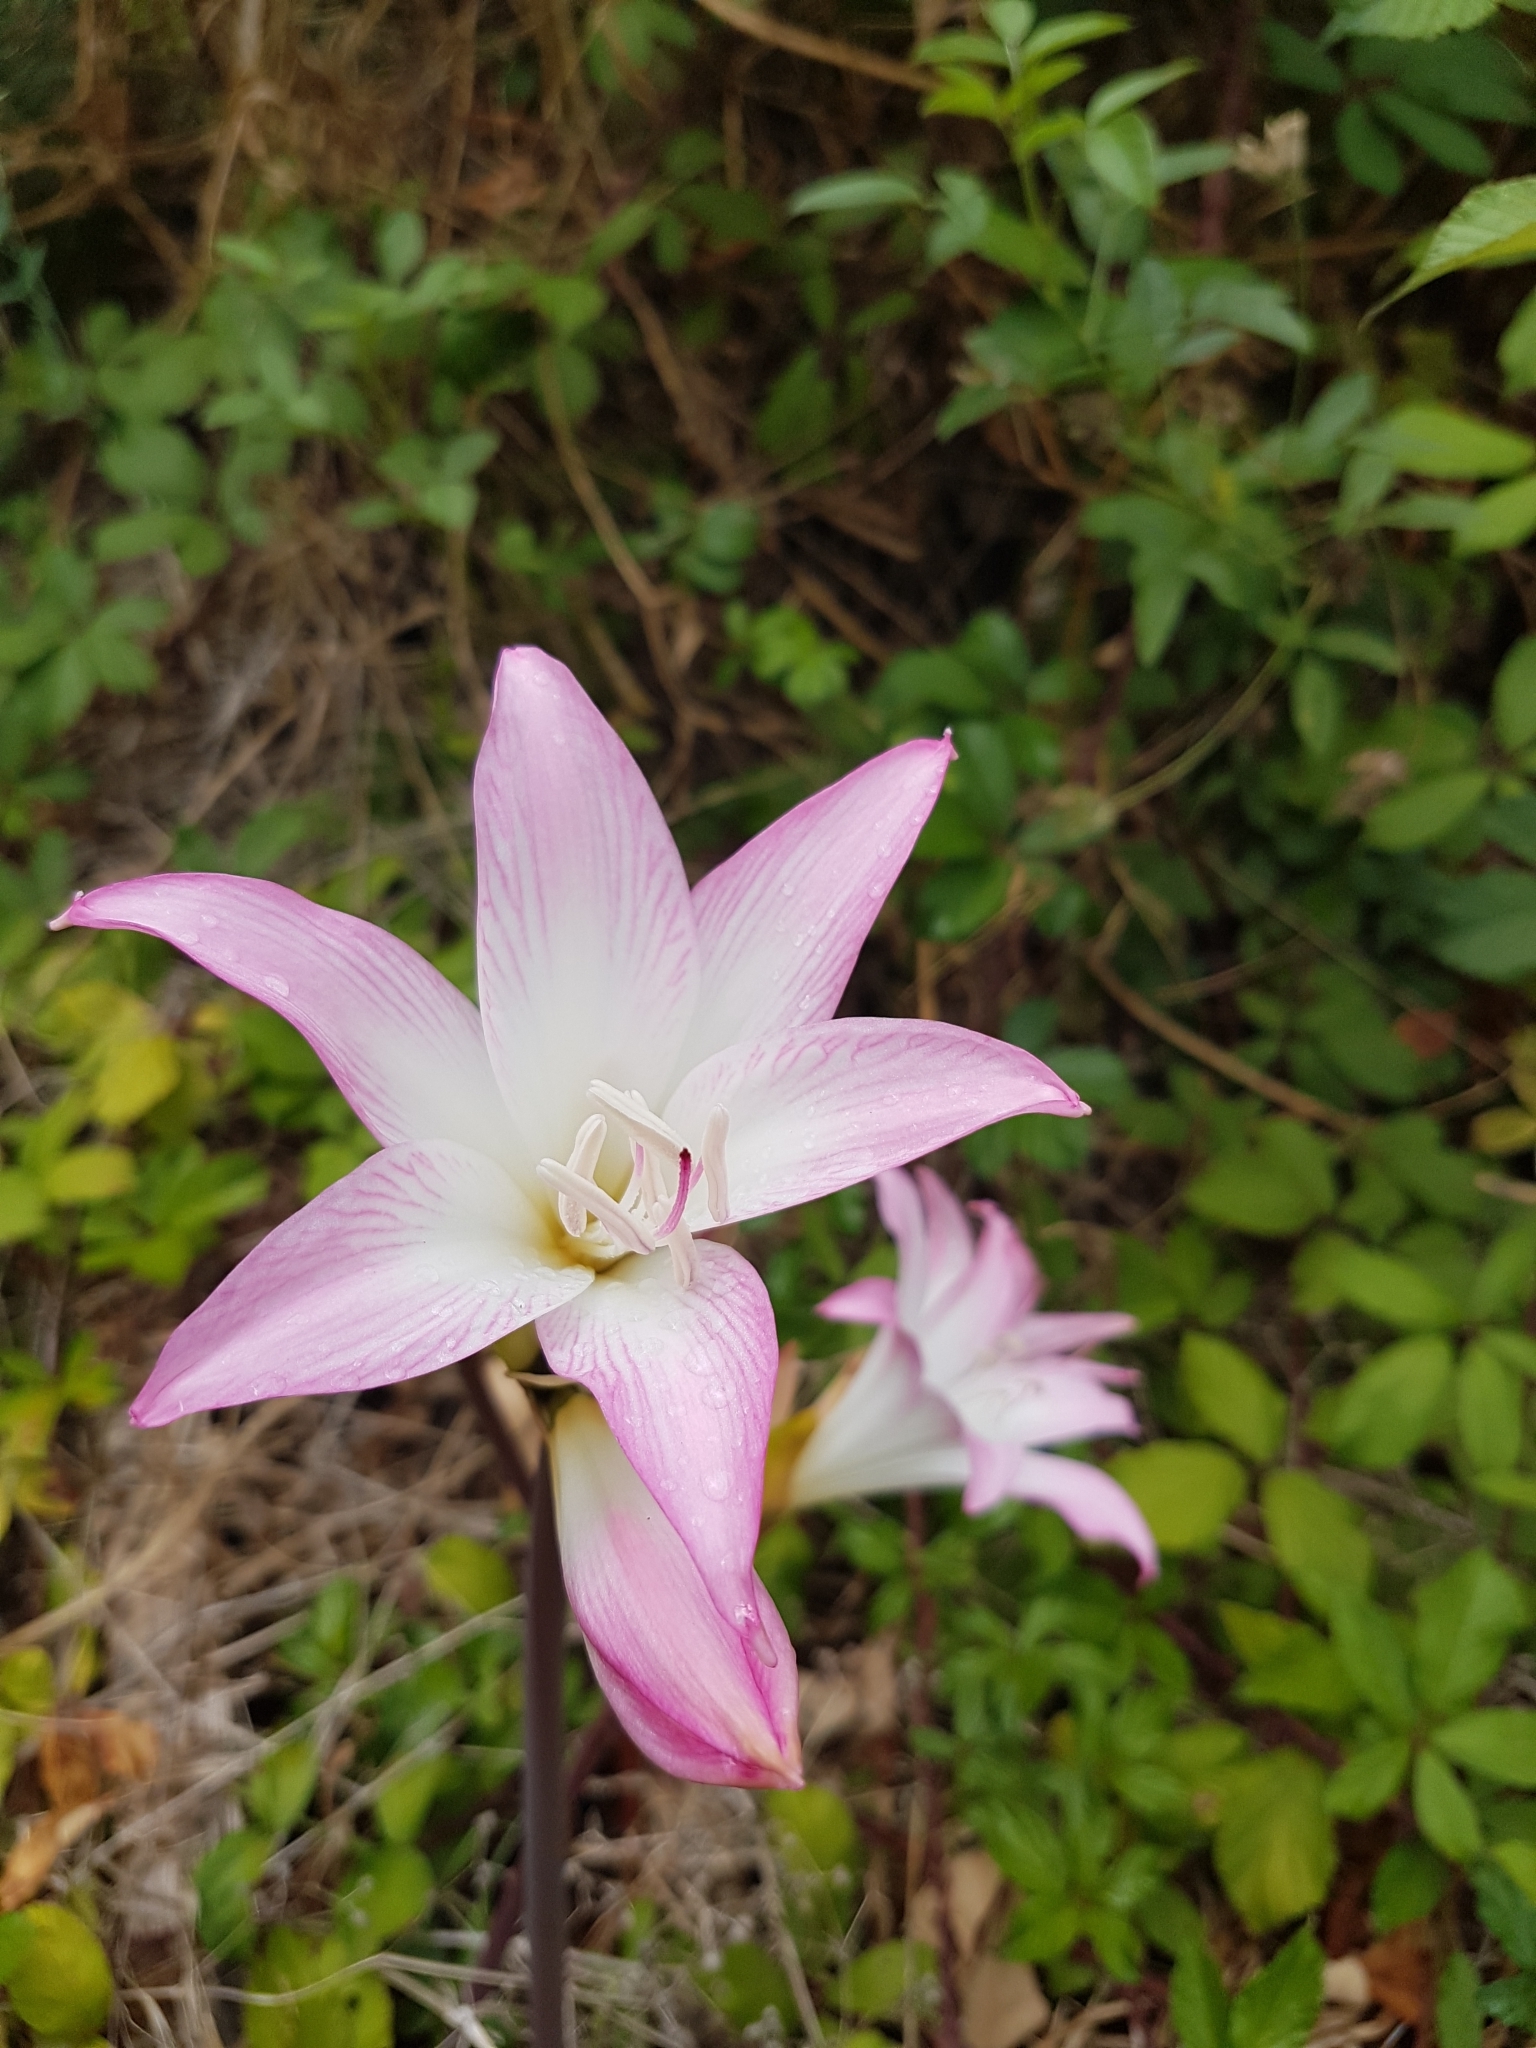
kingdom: Plantae
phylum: Tracheophyta
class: Liliopsida
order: Asparagales
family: Amaryllidaceae
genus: Amaryllis
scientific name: Amaryllis belladonna
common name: Jersey lily
